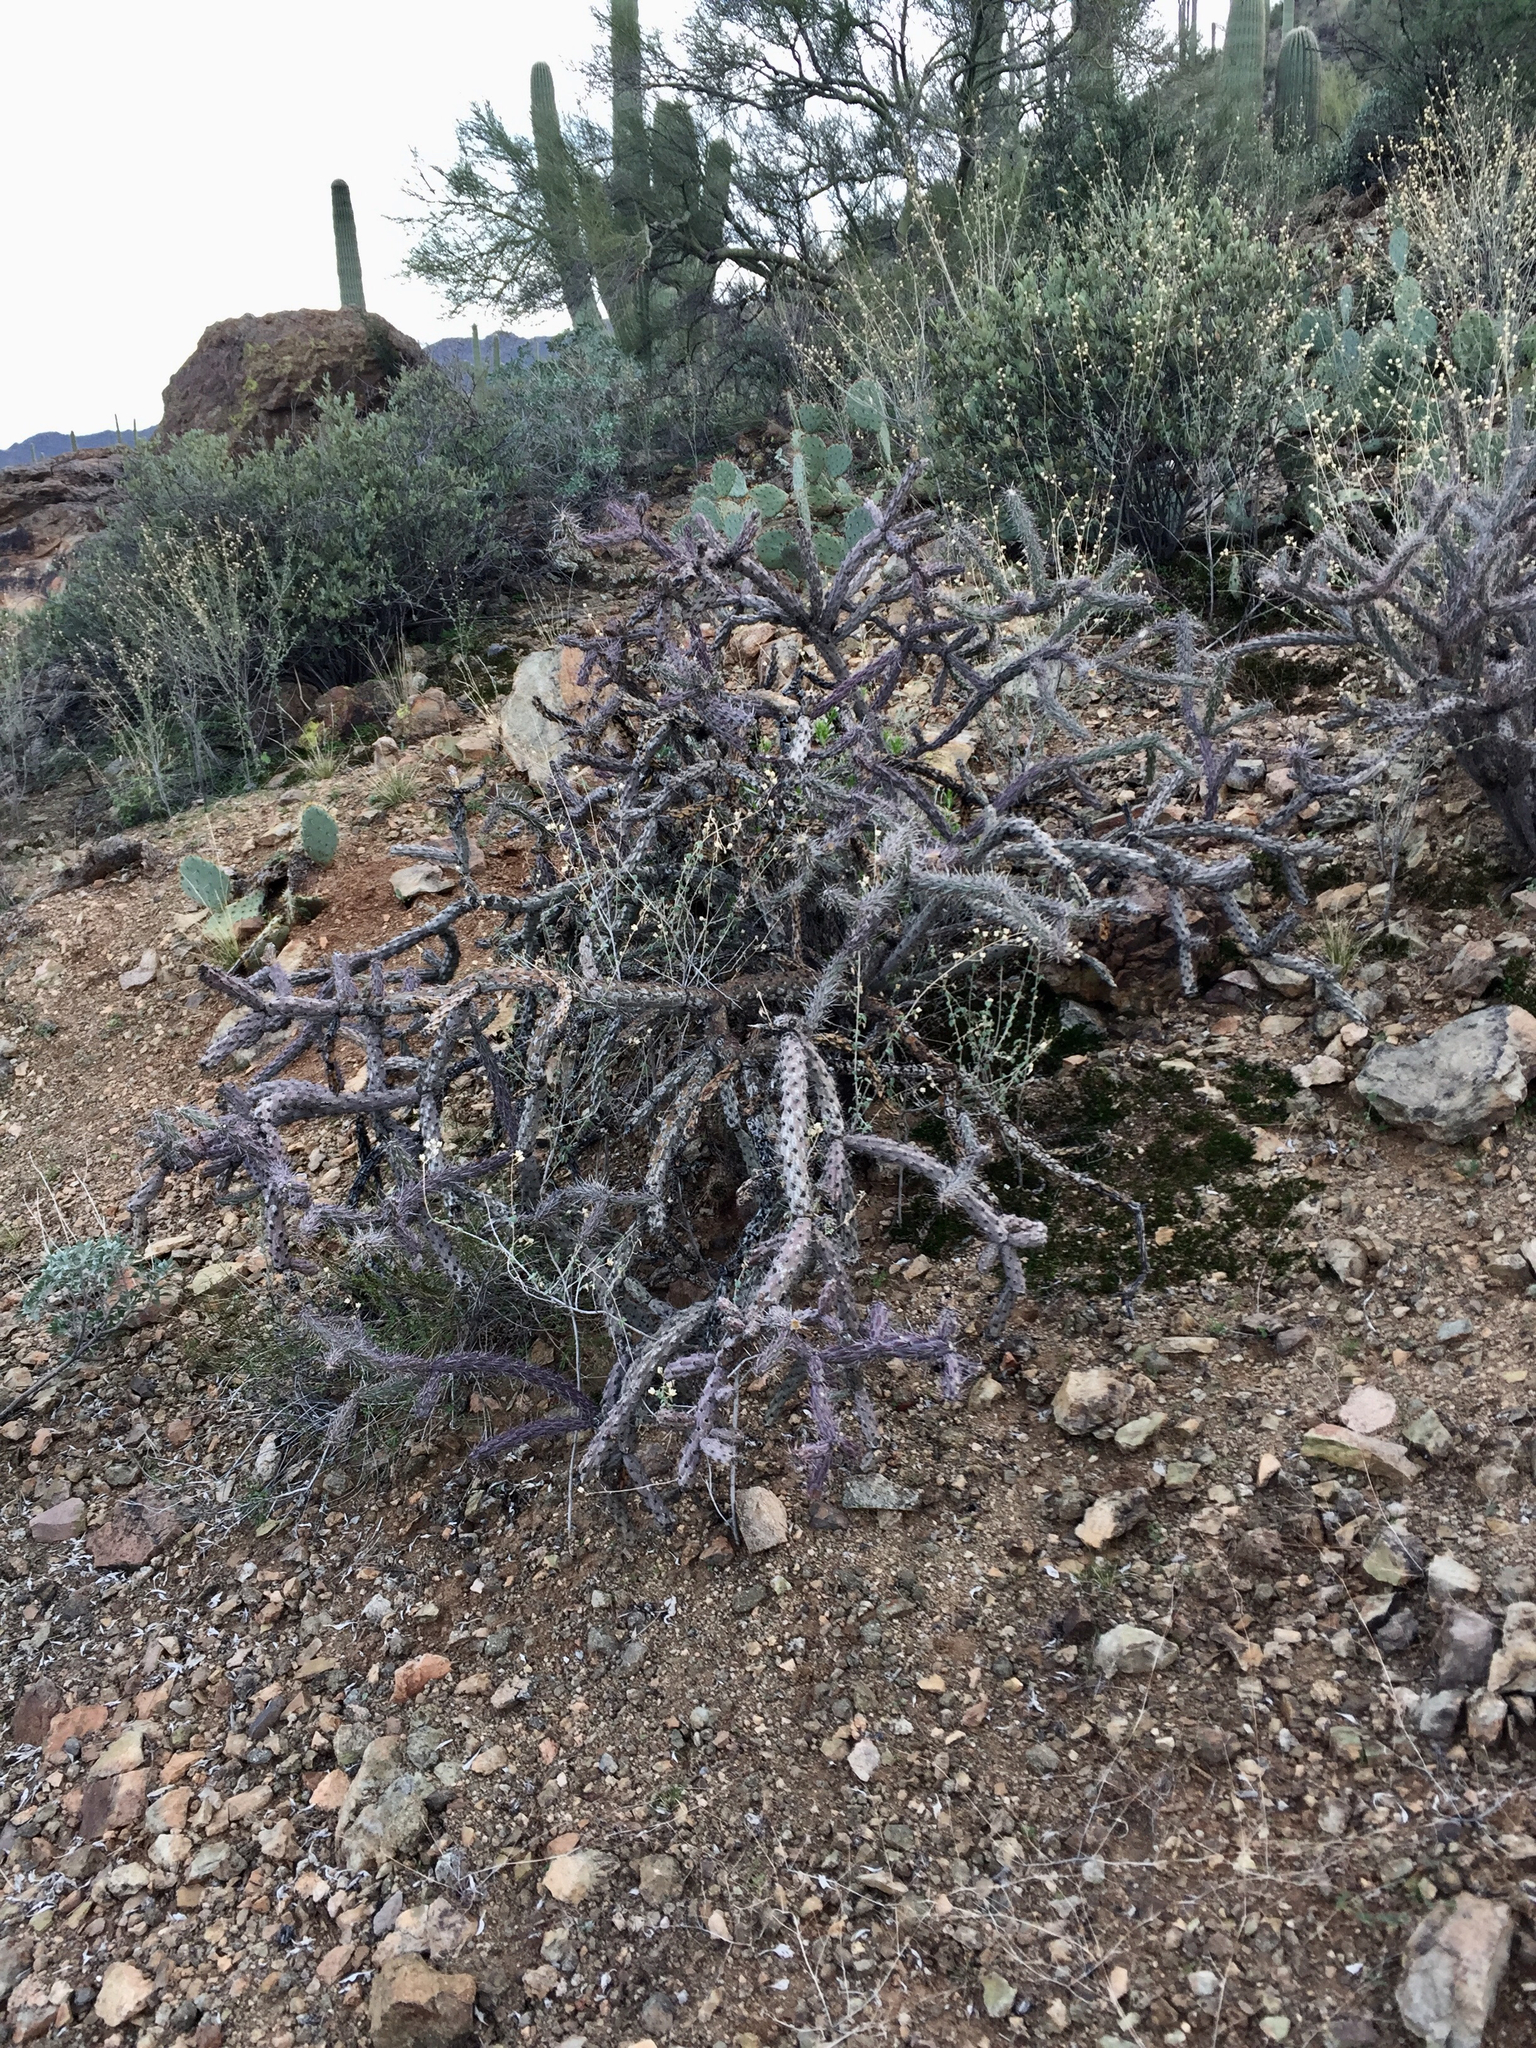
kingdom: Plantae
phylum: Tracheophyta
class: Magnoliopsida
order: Caryophyllales
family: Cactaceae
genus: Cylindropuntia
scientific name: Cylindropuntia thurberi
